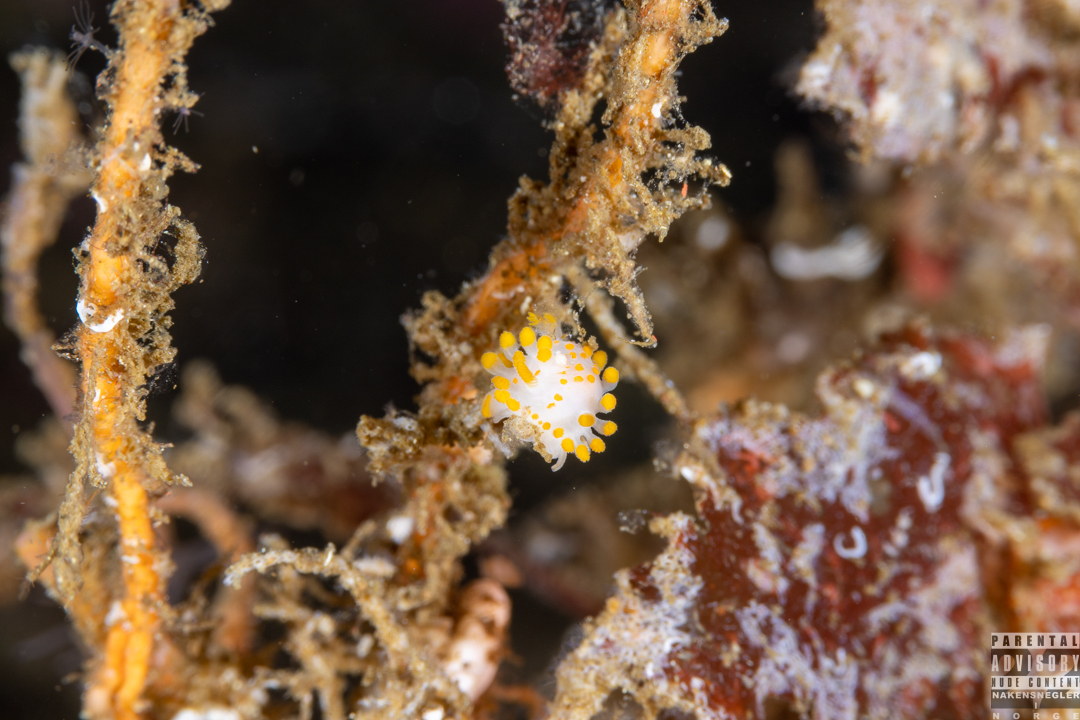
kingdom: Animalia
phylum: Mollusca
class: Gastropoda
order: Nudibranchia
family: Polyceridae
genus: Limacia
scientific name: Limacia clavigera
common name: Orange-clubbed sea slug
